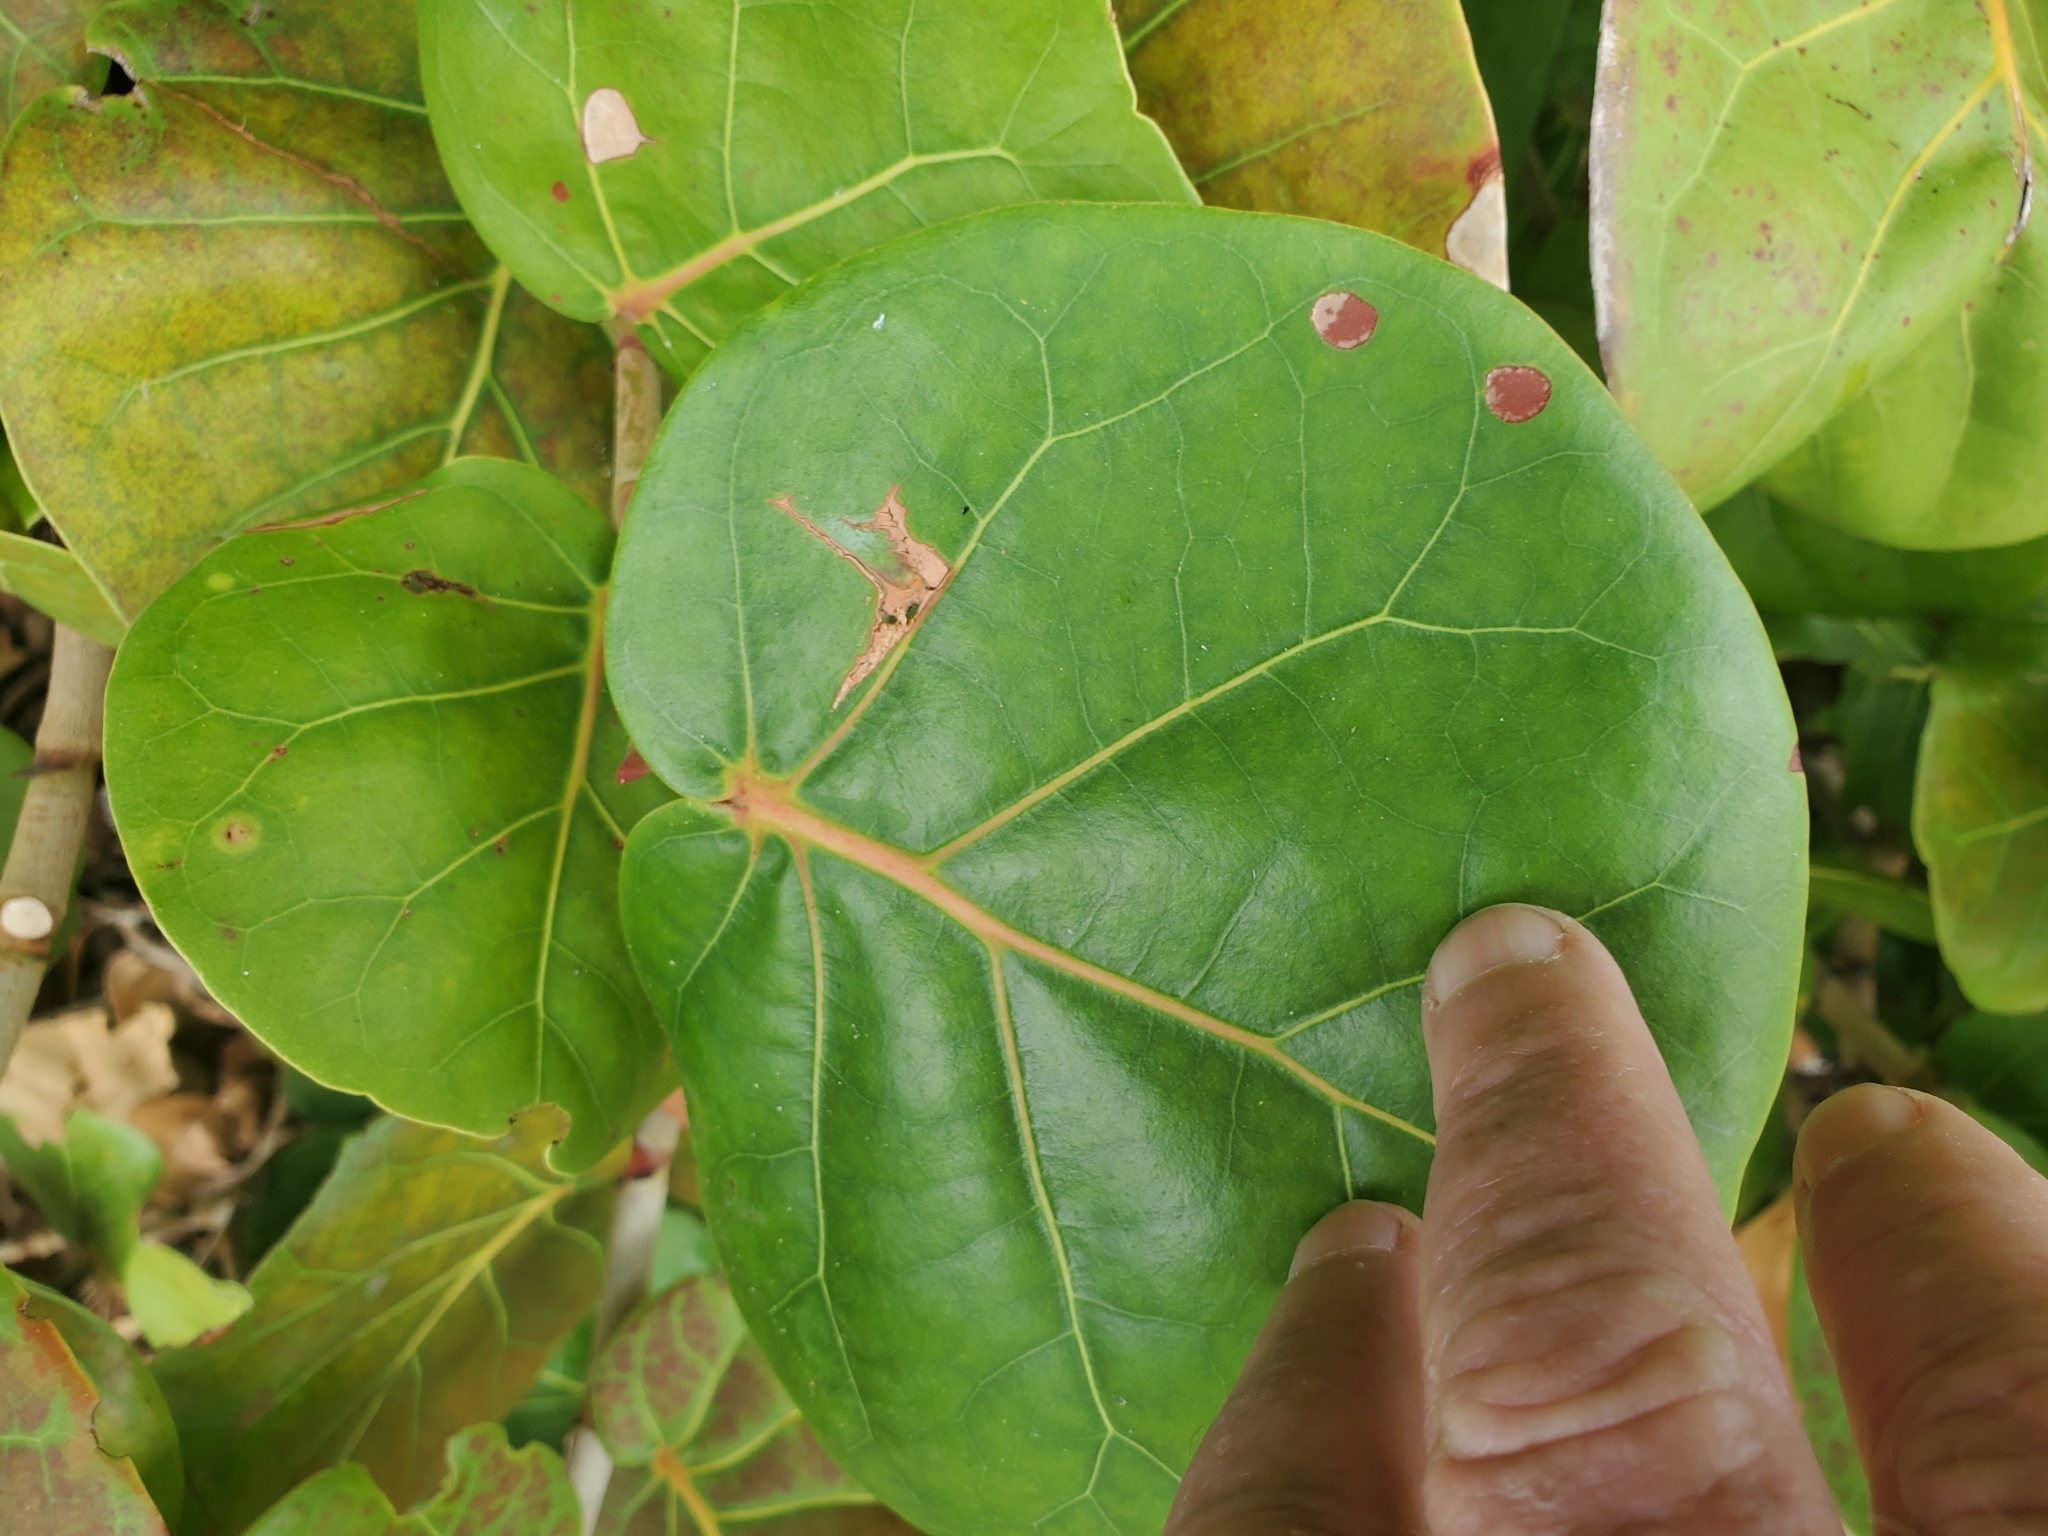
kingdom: Animalia
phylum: Arthropoda
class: Insecta
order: Diptera
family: Cecidomyiidae
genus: Ctenodactylomyia
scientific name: Ctenodactylomyia watsoni
